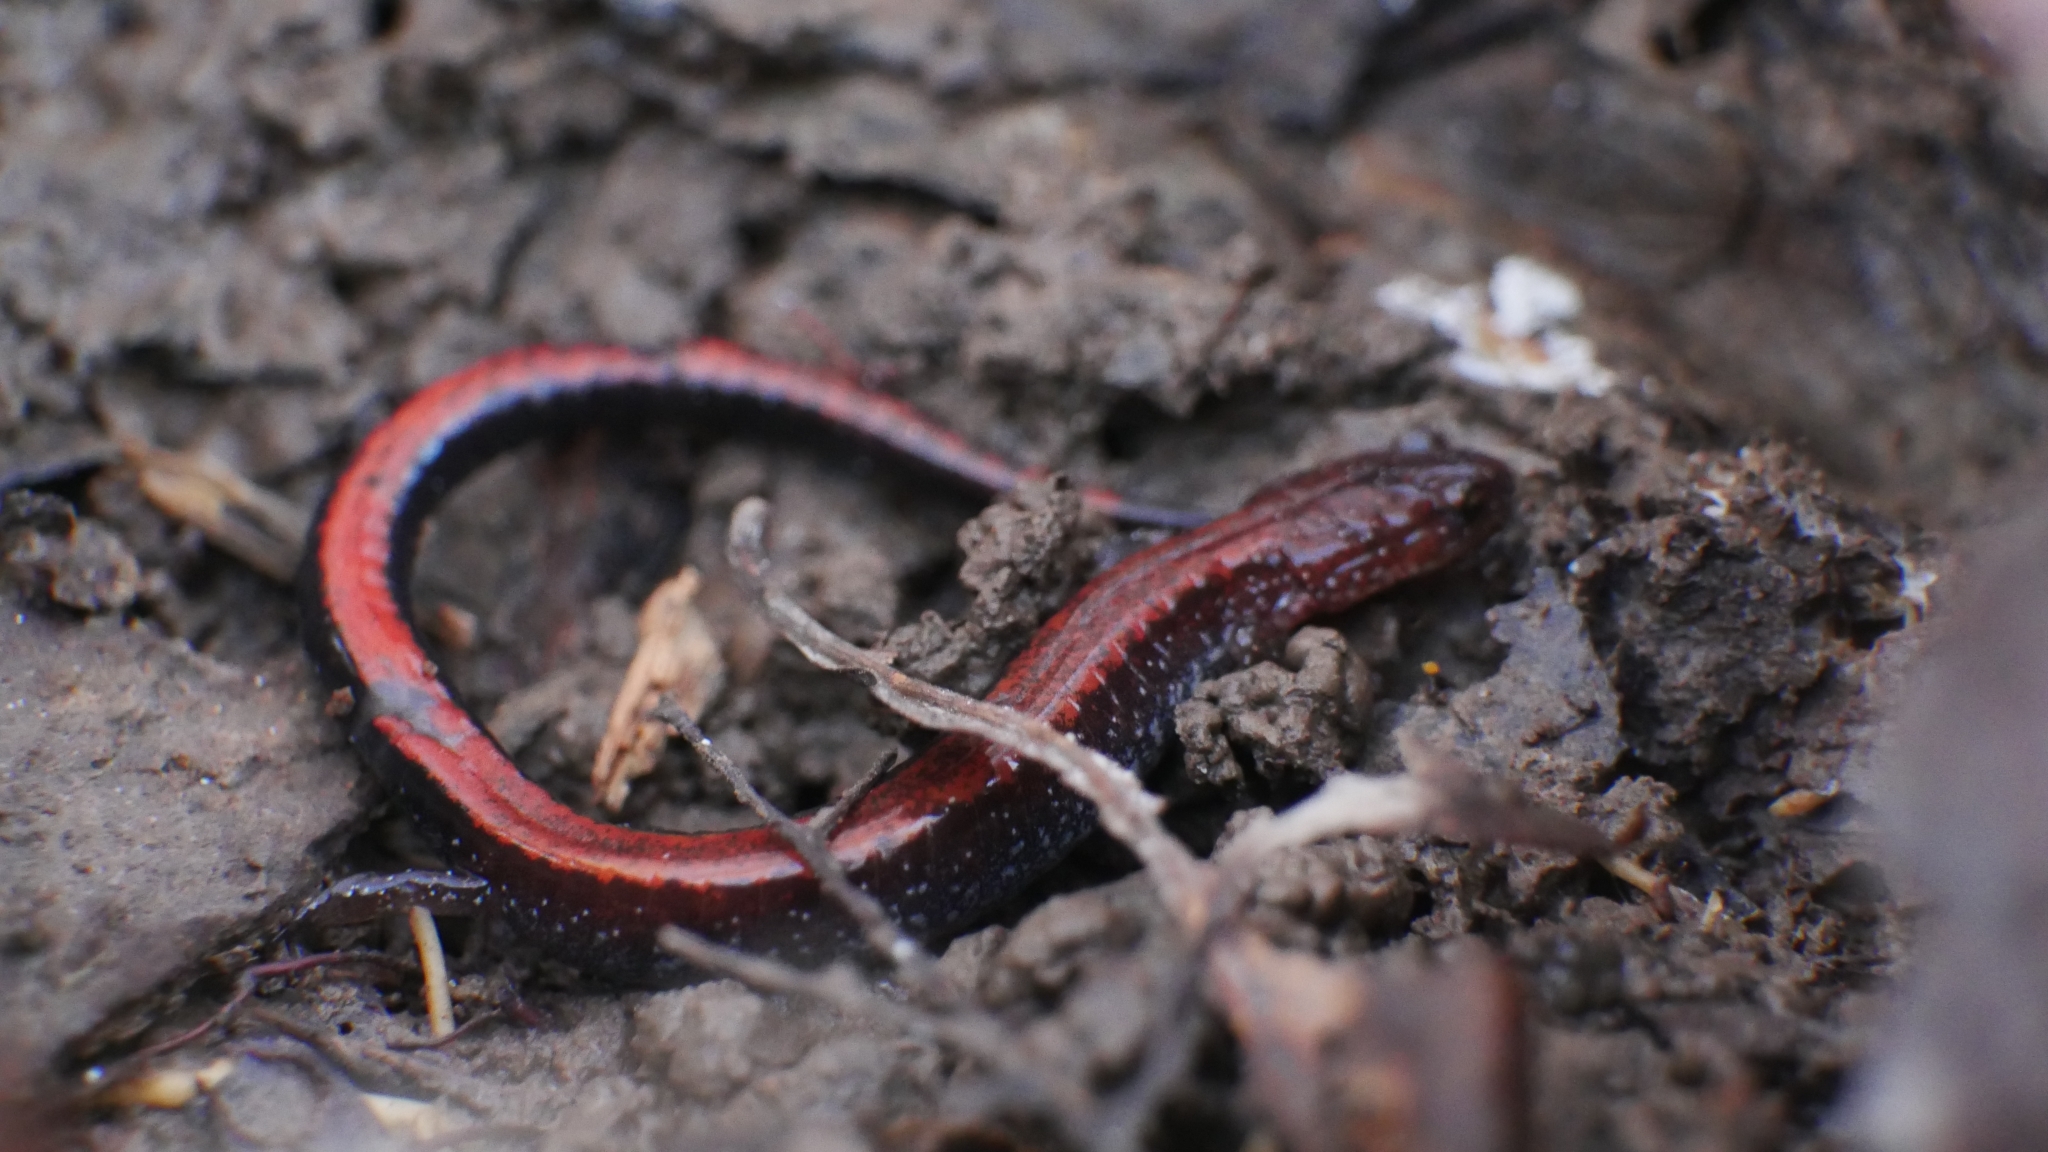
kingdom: Animalia
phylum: Chordata
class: Amphibia
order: Caudata
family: Plethodontidae
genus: Plethodon
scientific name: Plethodon cinereus
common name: Redback salamander
